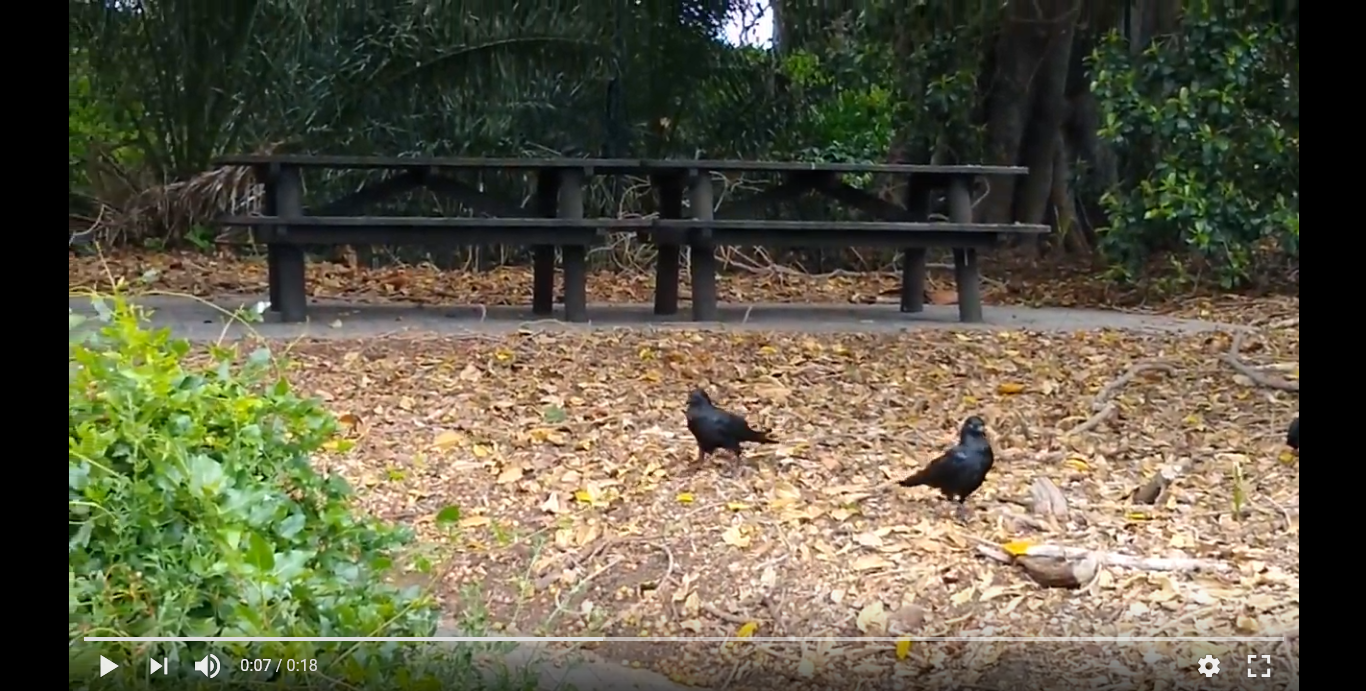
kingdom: Animalia
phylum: Chordata
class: Aves
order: Passeriformes
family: Corvidae
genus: Corvus
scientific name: Corvus bennetti
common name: Little crow
